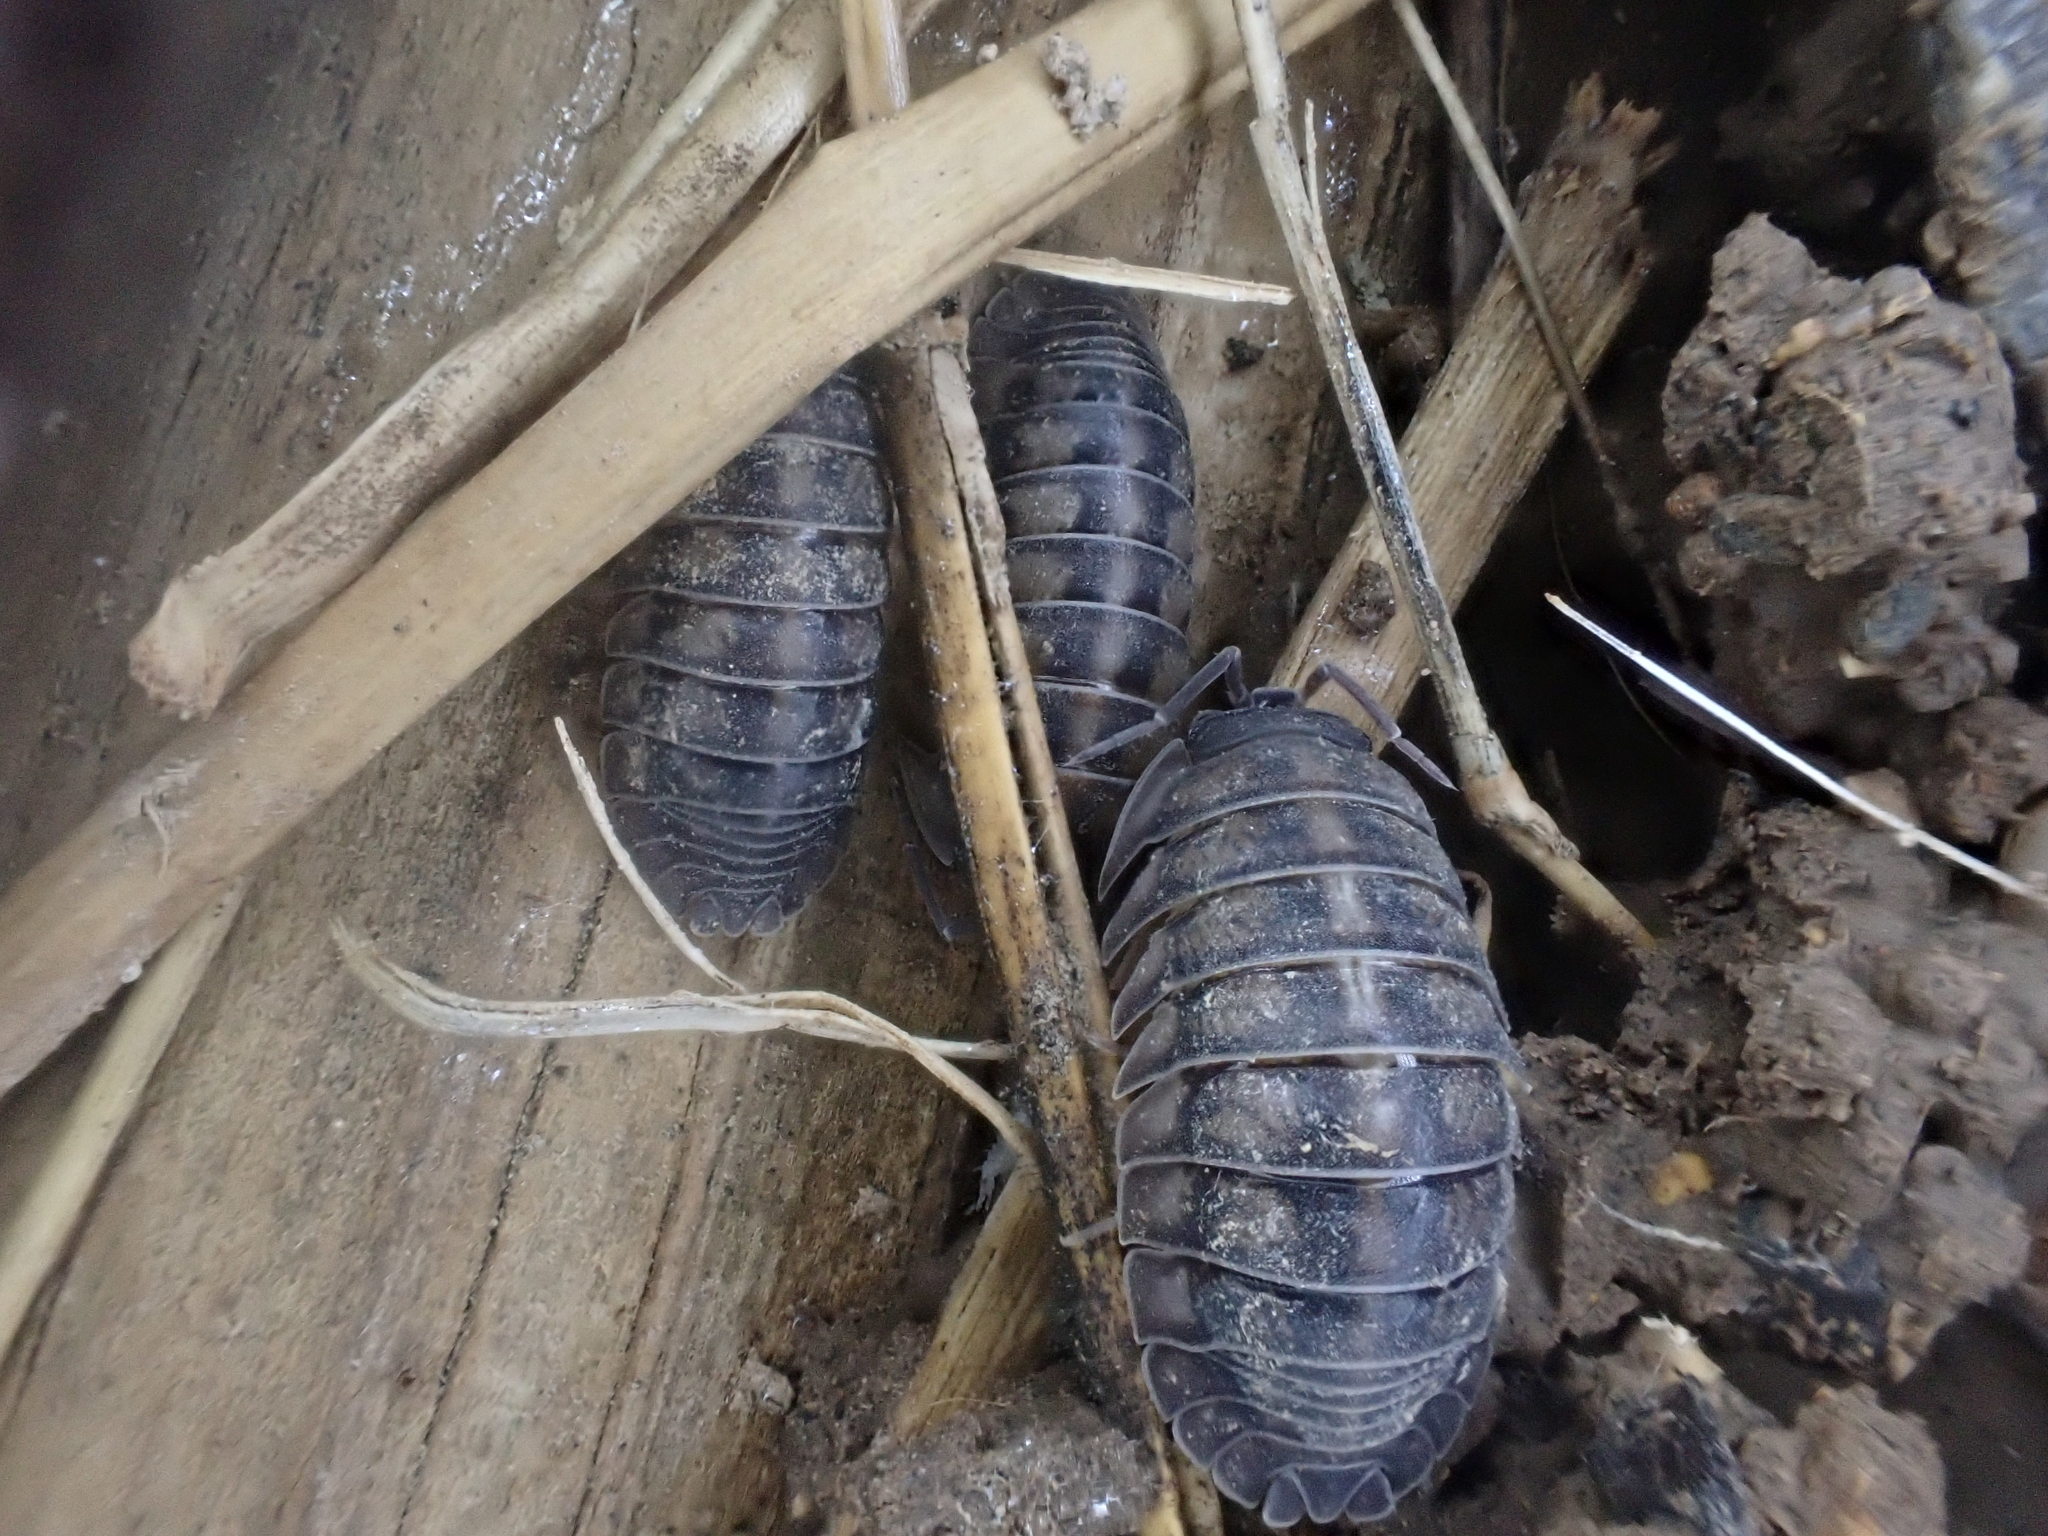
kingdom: Animalia
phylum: Arthropoda
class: Malacostraca
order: Isopoda
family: Armadillidiidae
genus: Armadillidium
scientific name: Armadillidium nasatum
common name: Isopod
